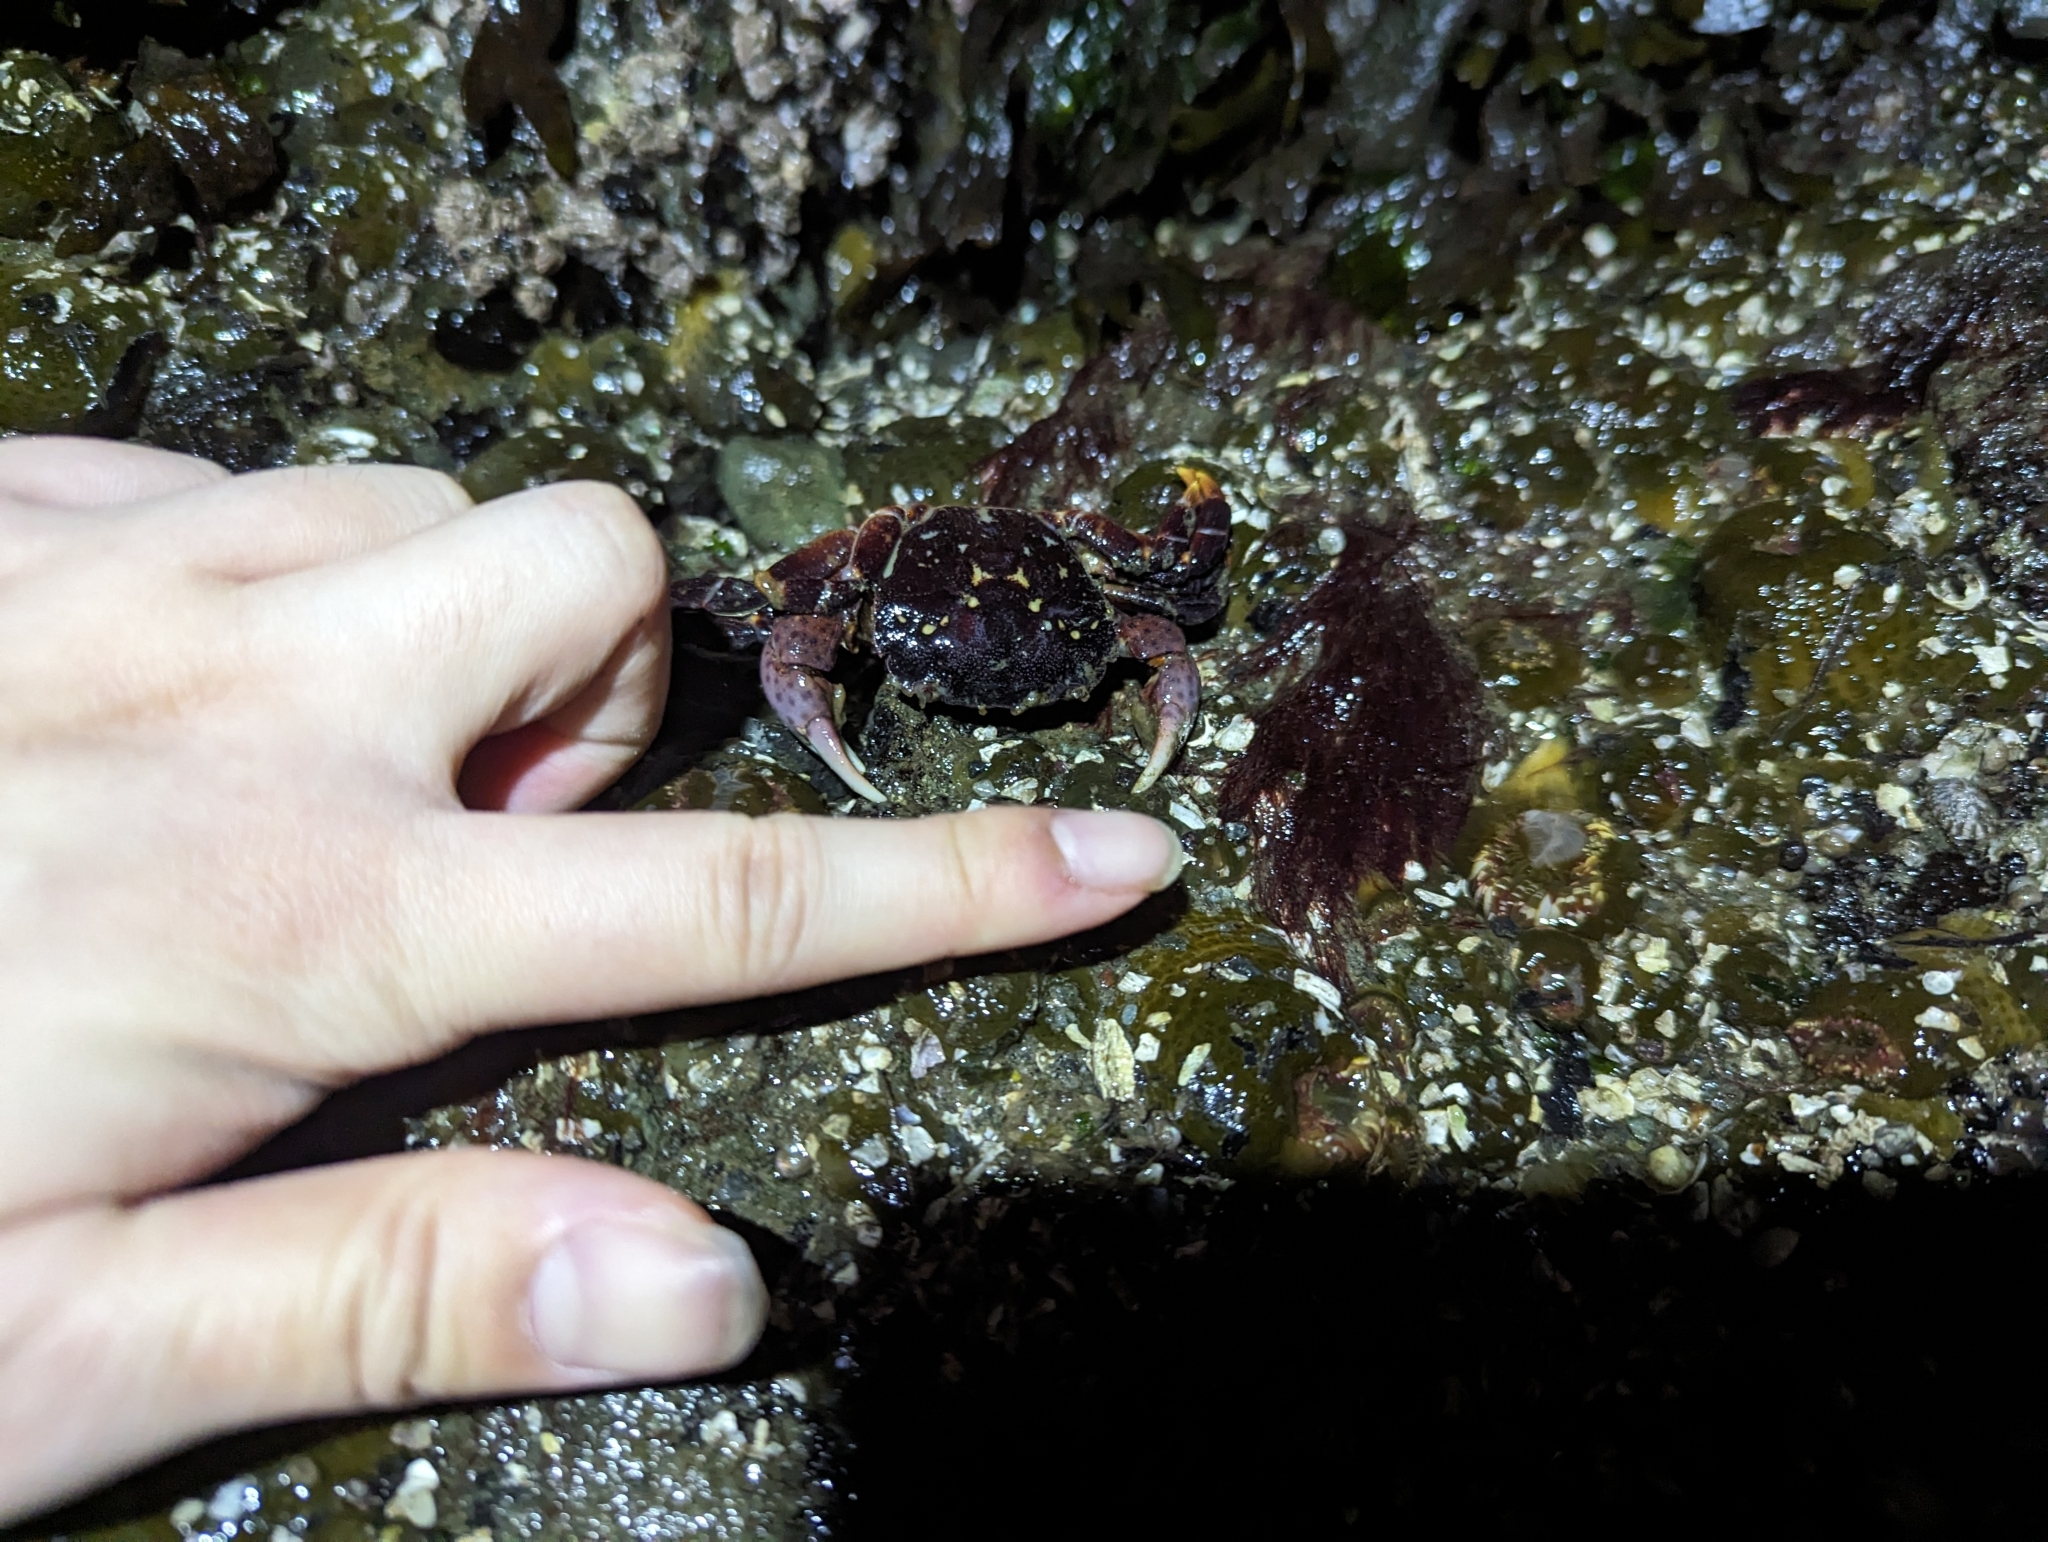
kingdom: Animalia
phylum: Arthropoda
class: Malacostraca
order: Decapoda
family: Varunidae
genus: Hemigrapsus
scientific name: Hemigrapsus nudus
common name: Purple shore crab
